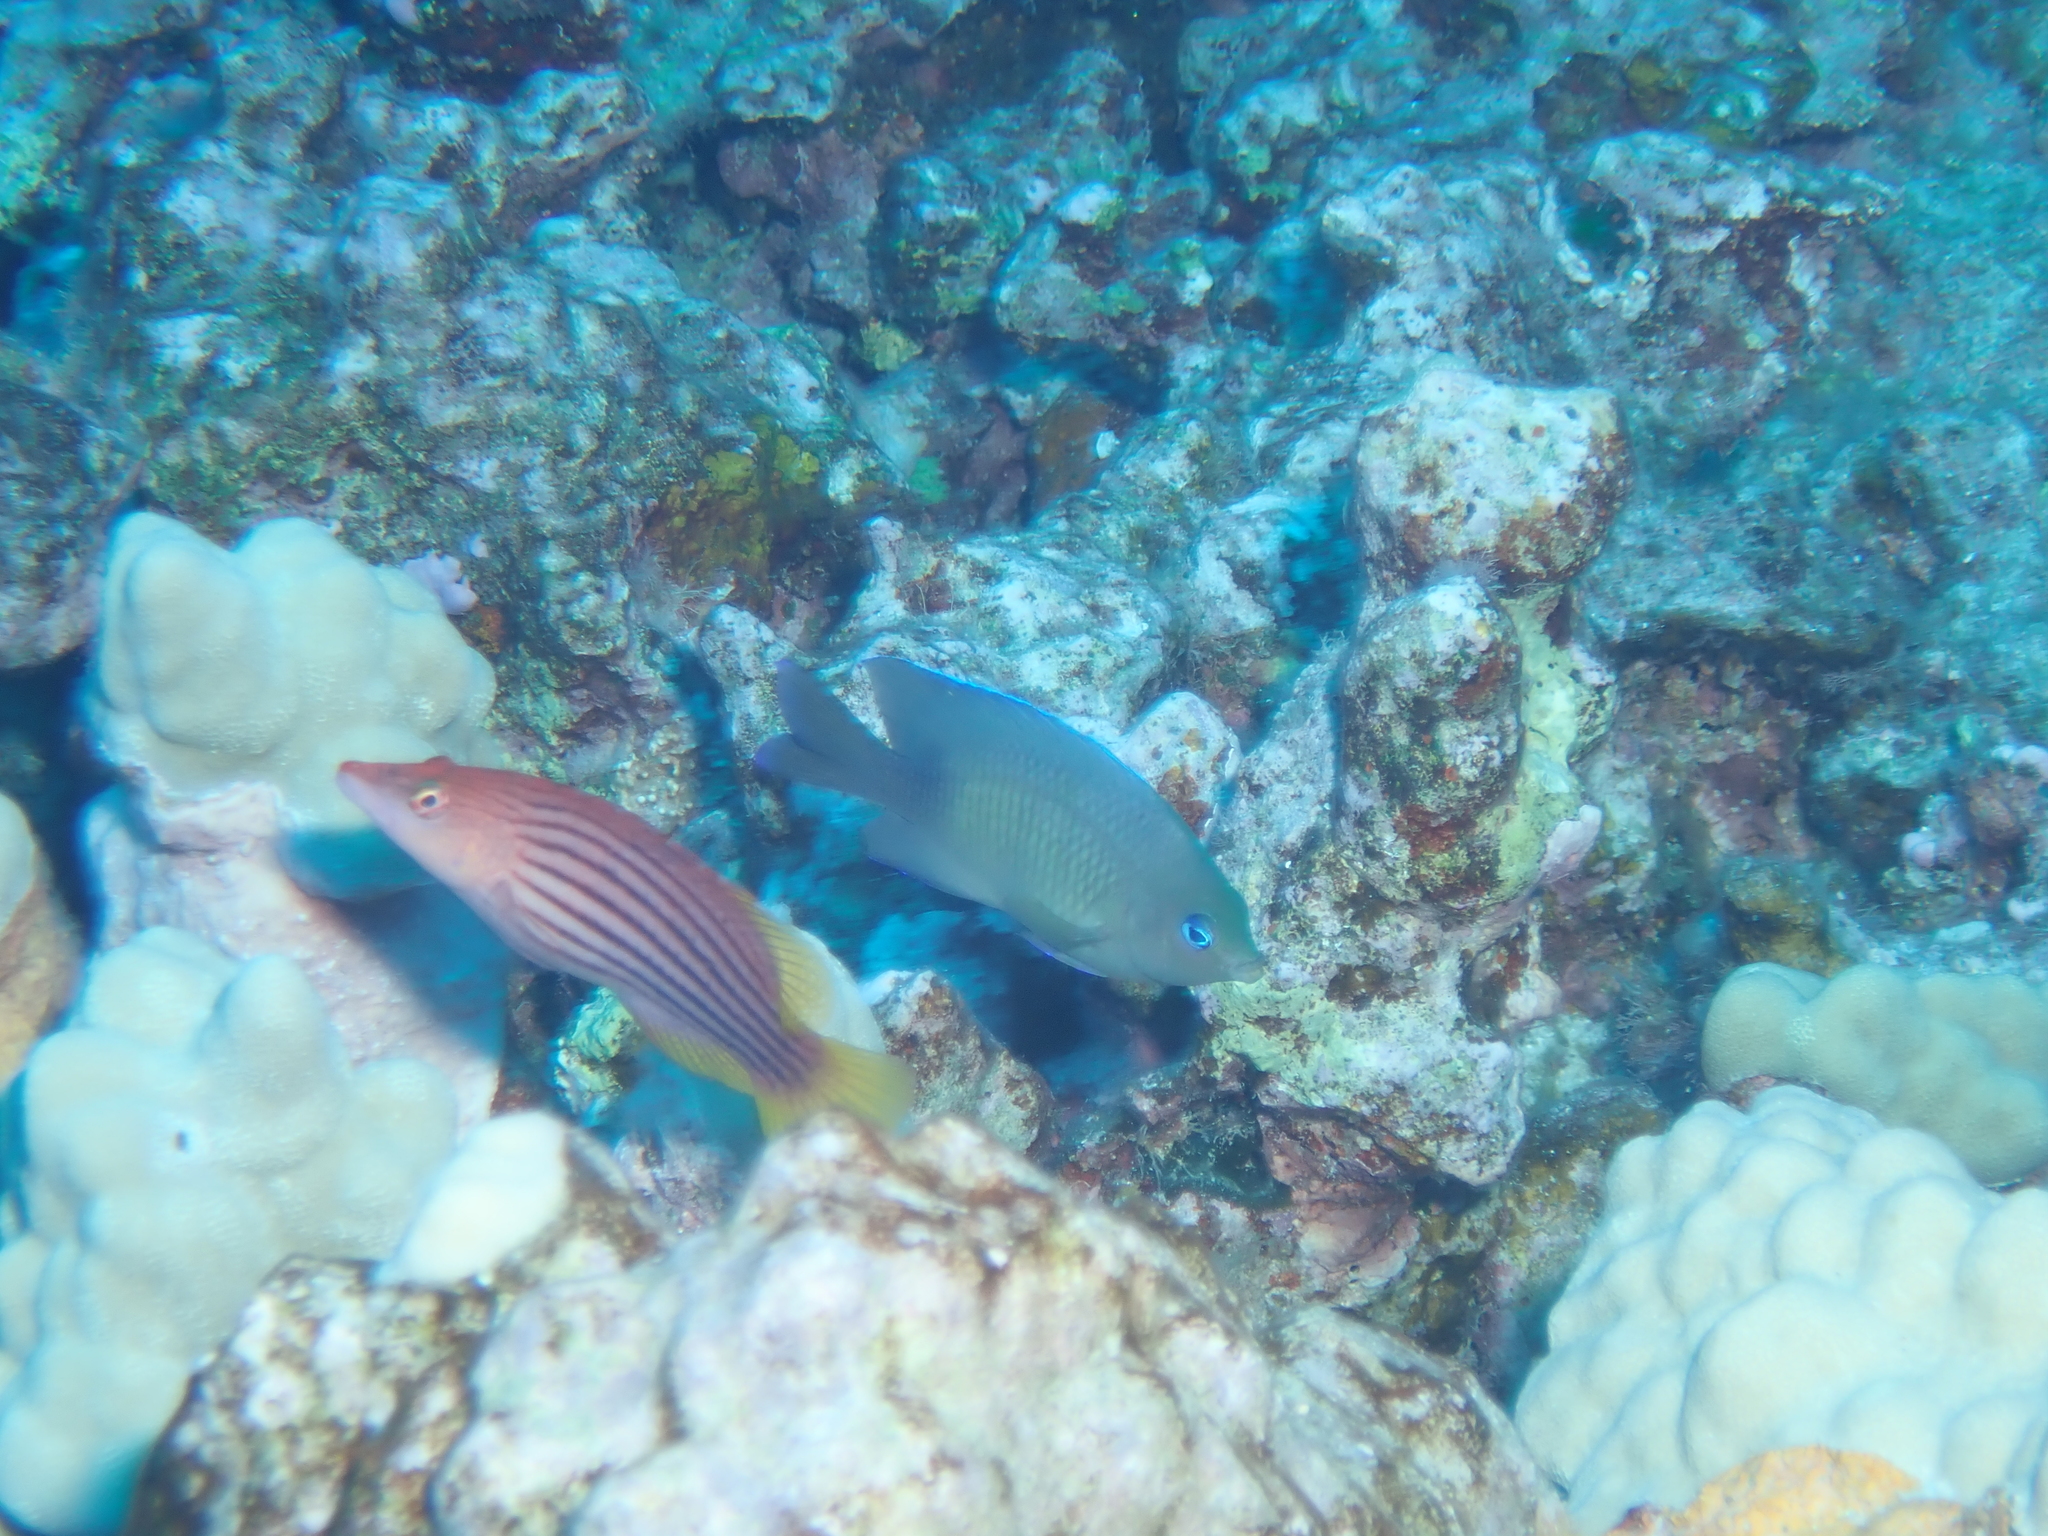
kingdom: Animalia
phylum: Chordata
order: Perciformes
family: Pomacentridae
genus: Plectroglyphidodon
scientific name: Plectroglyphidodon johnstonianus
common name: Johnston damsel
